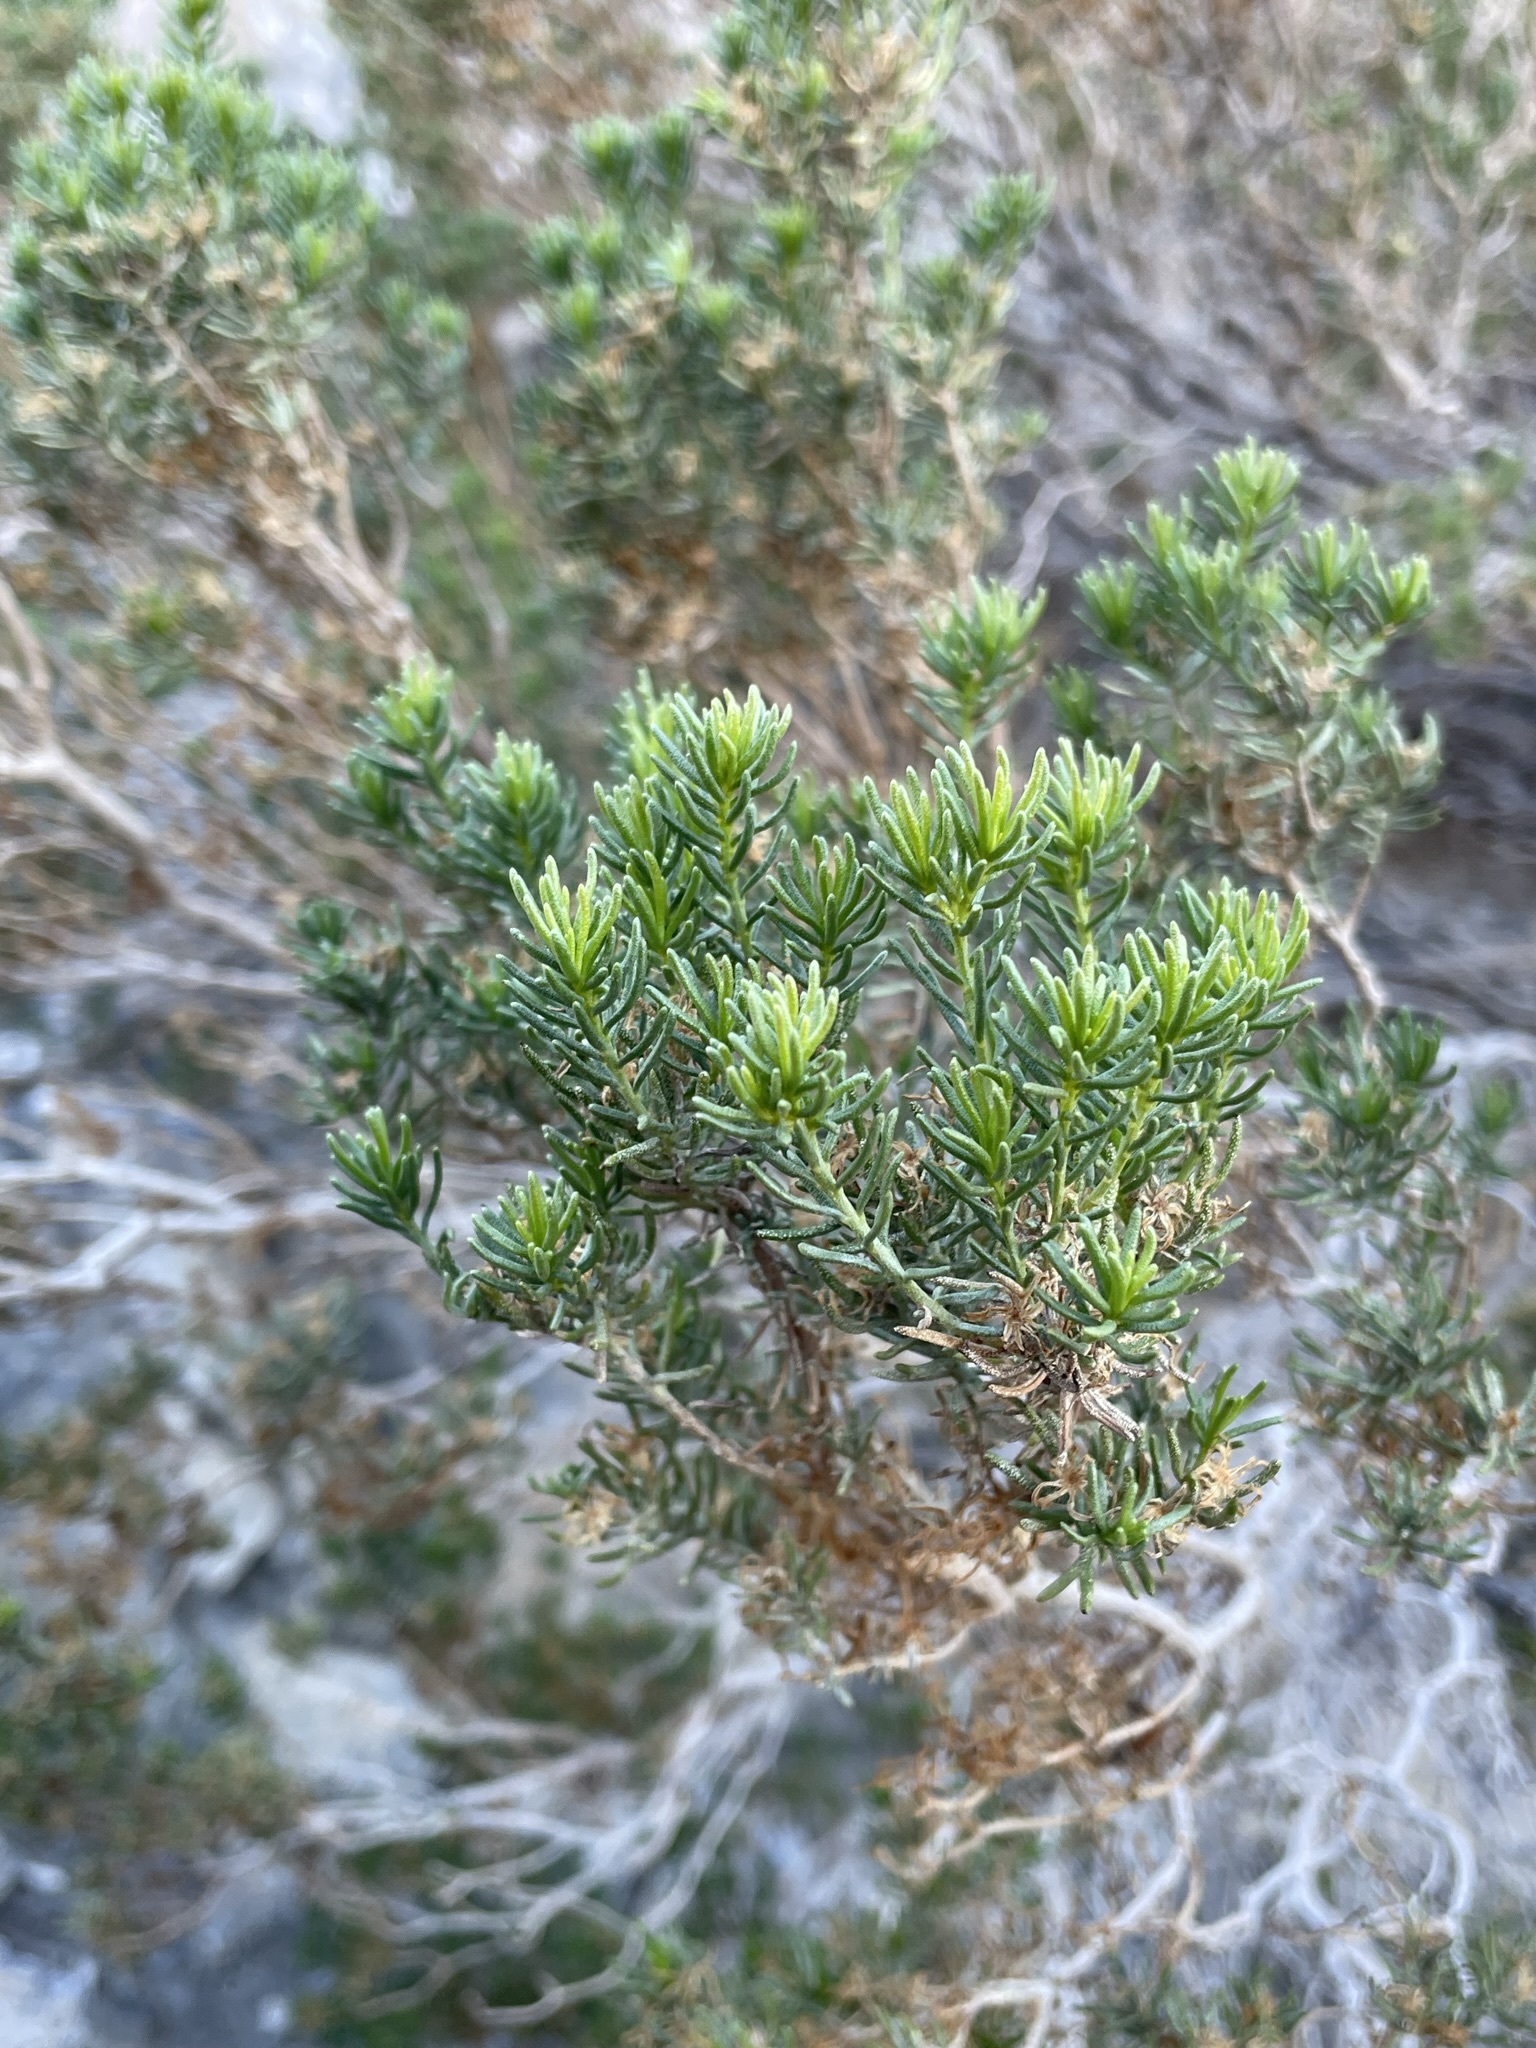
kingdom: Plantae
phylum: Tracheophyta
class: Magnoliopsida
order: Asterales
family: Asteraceae
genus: Peucephyllum
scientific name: Peucephyllum schottii
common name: Pygmy-cedar
